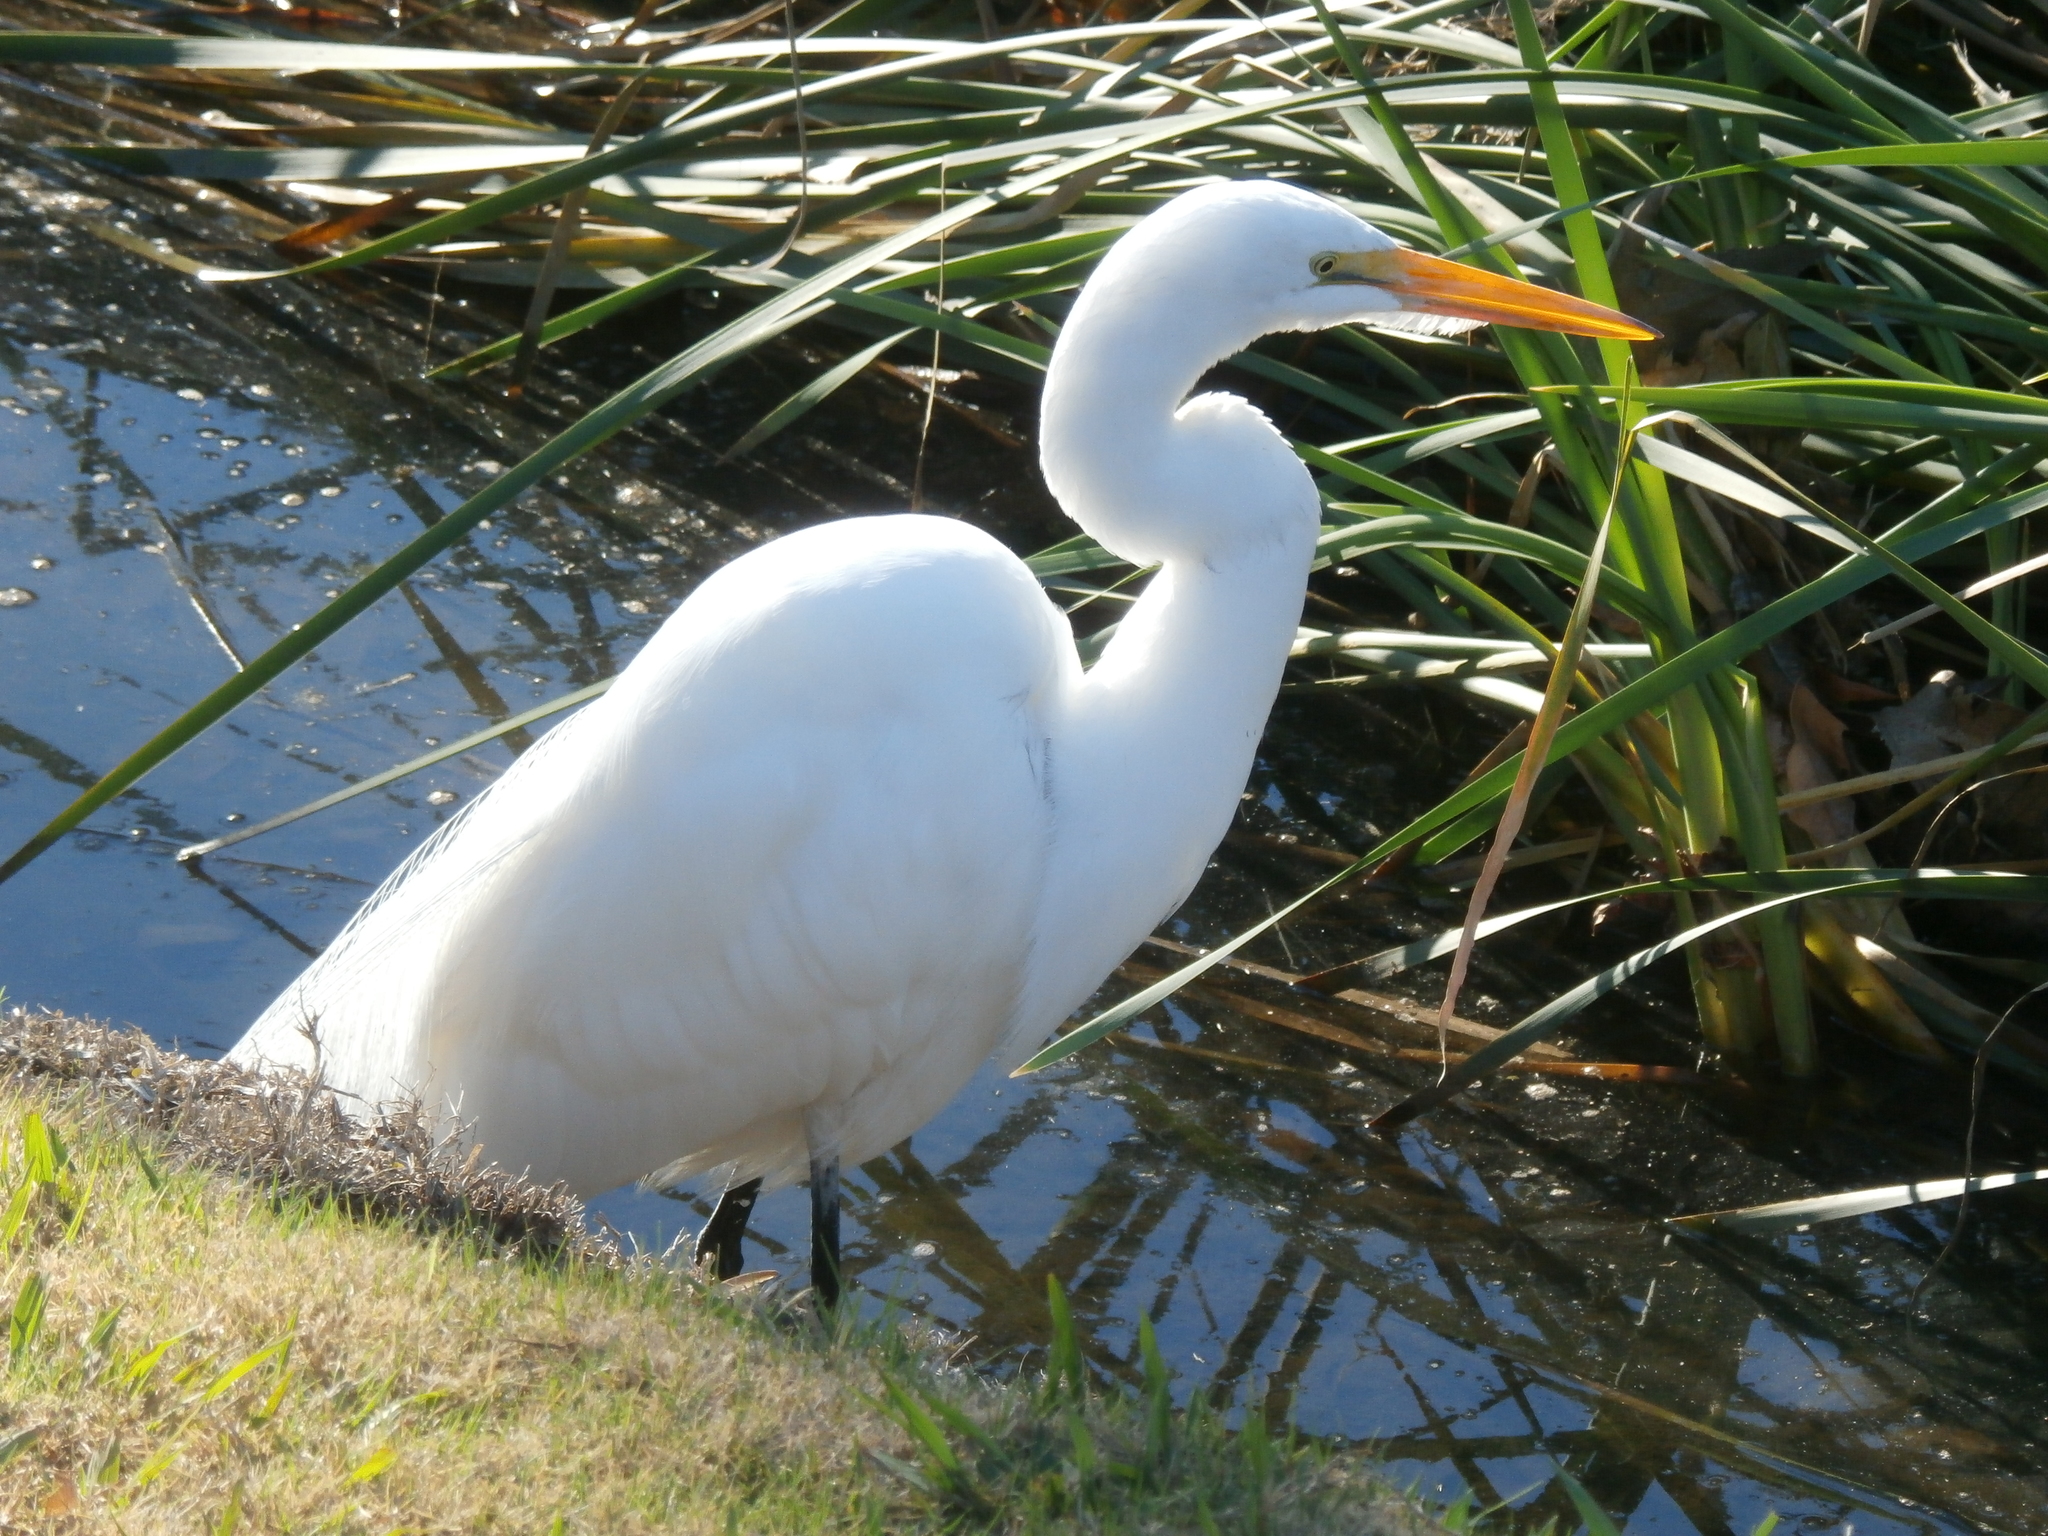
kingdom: Animalia
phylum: Chordata
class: Aves
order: Pelecaniformes
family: Ardeidae
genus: Ardea
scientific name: Ardea alba
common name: Great egret
